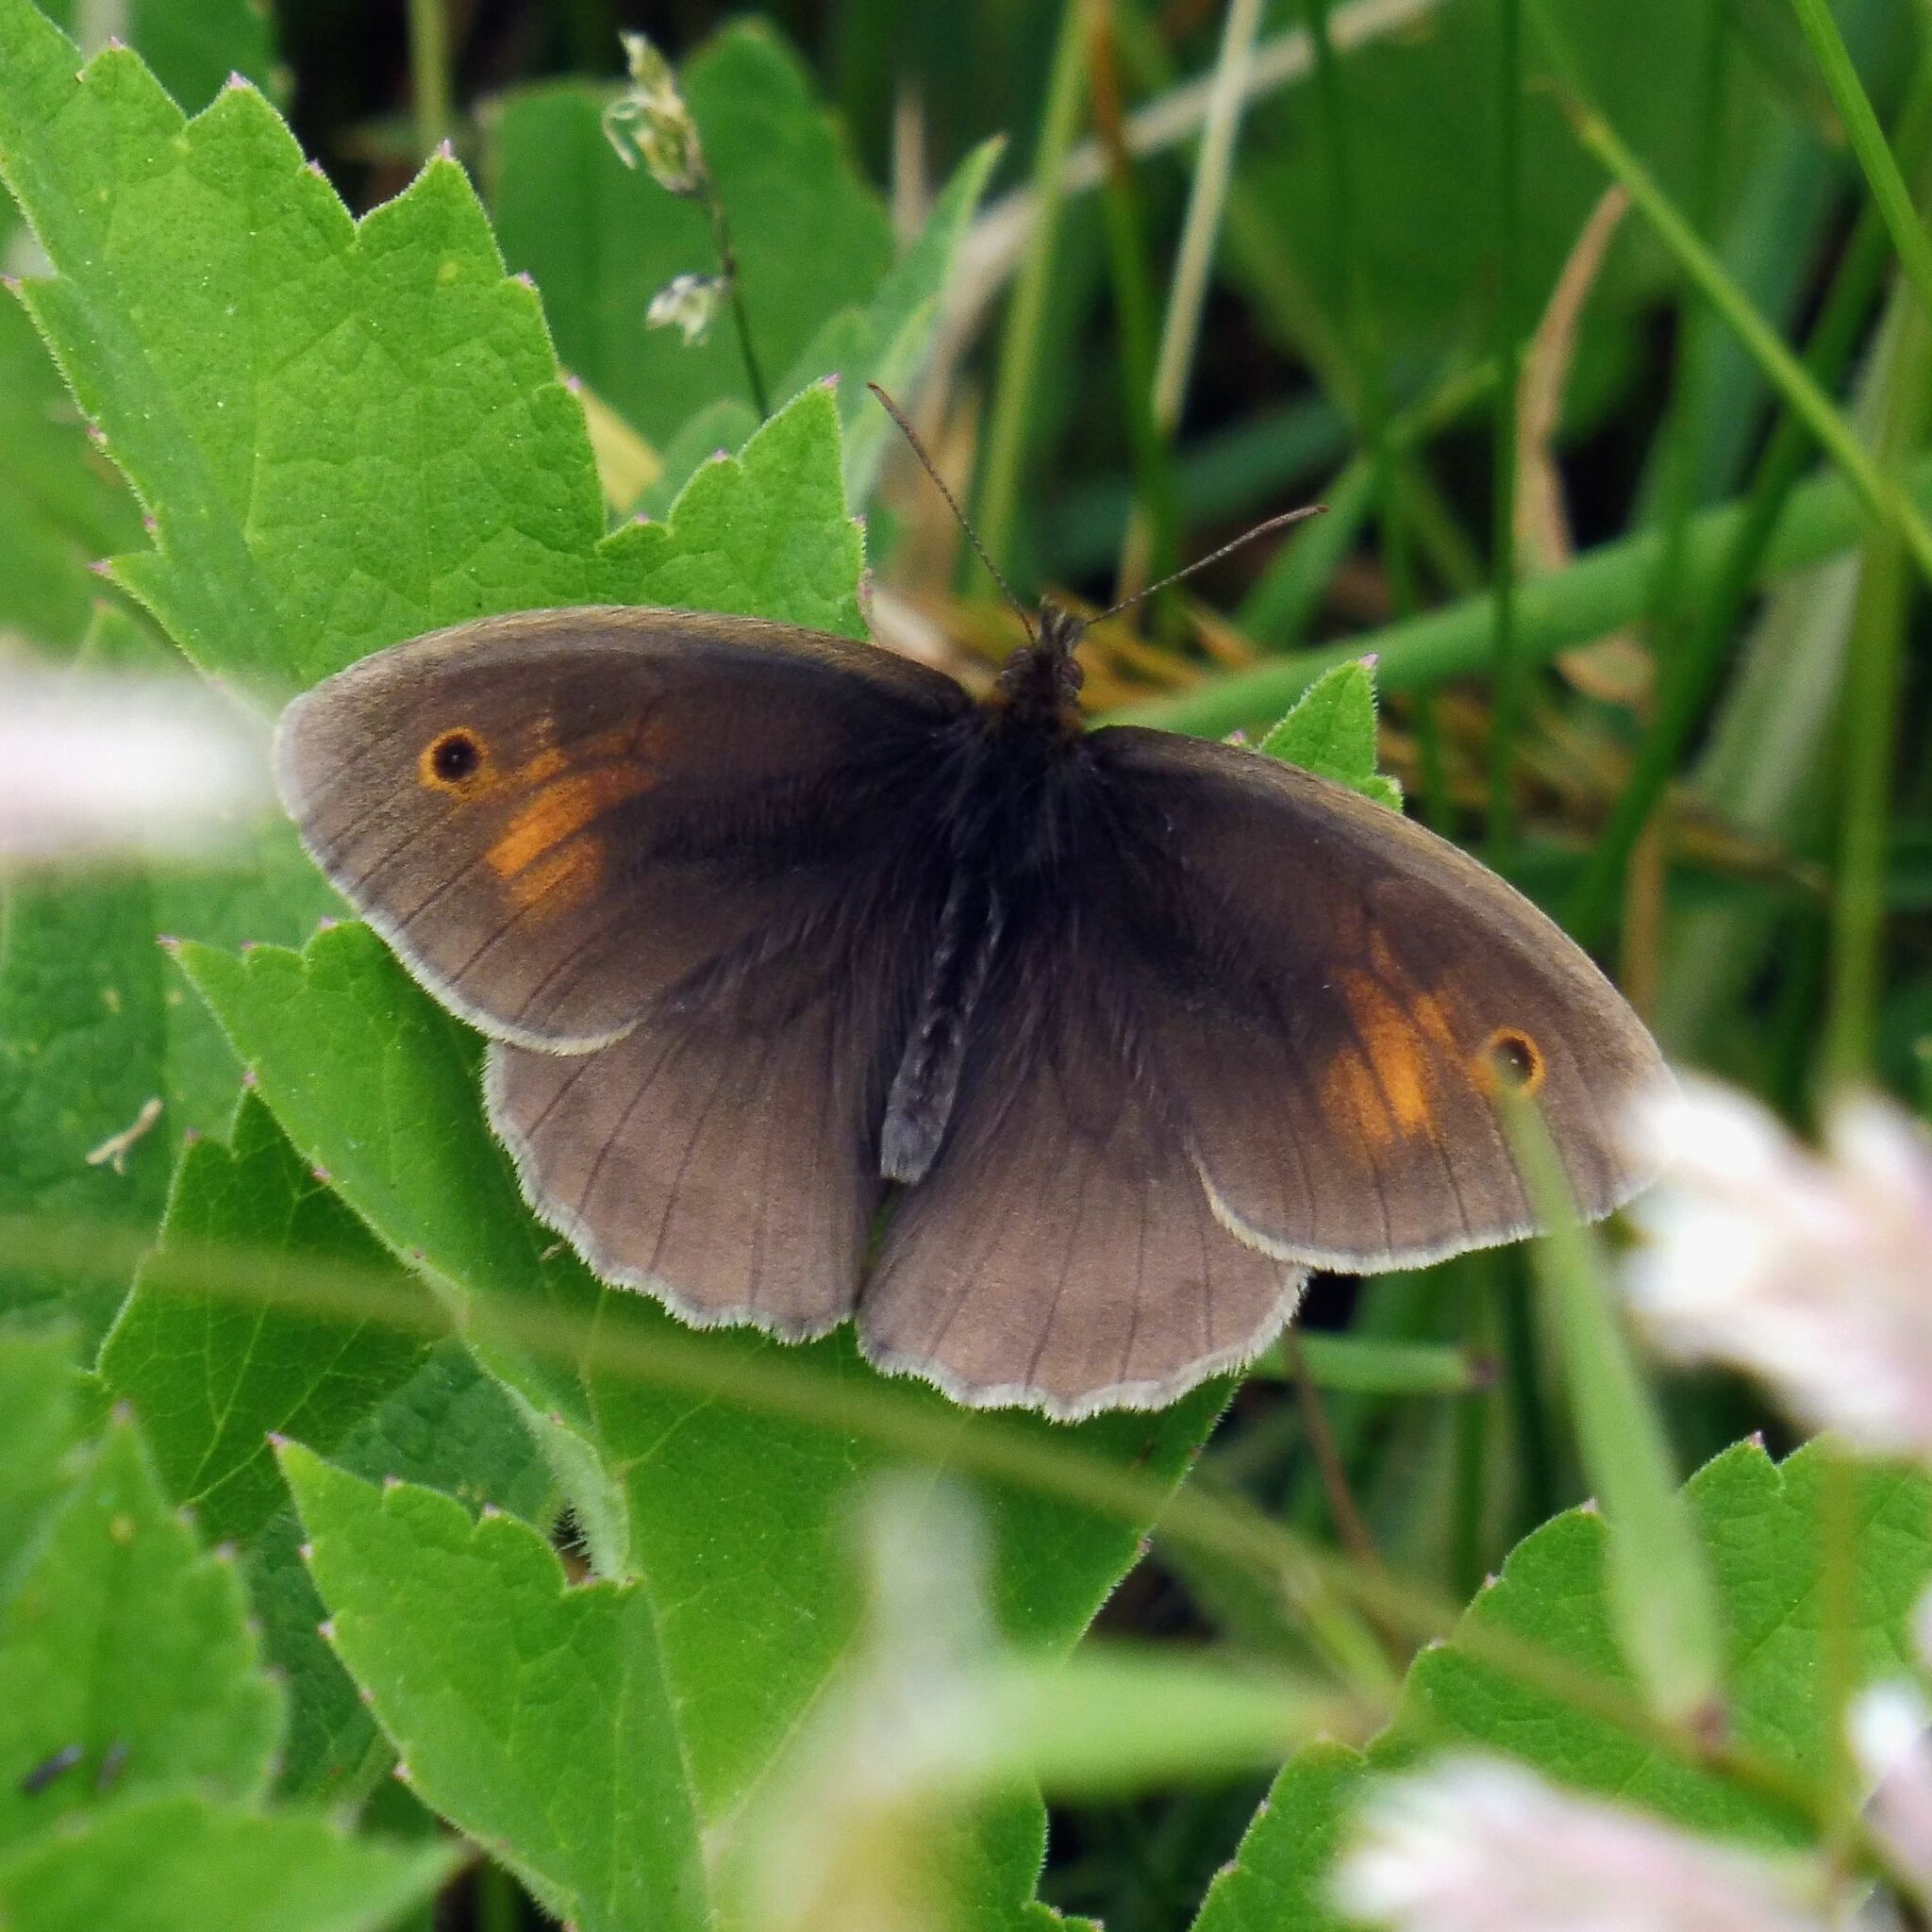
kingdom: Animalia
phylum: Arthropoda
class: Insecta
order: Lepidoptera
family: Nymphalidae
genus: Maniola
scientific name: Maniola jurtina
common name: Meadow brown
